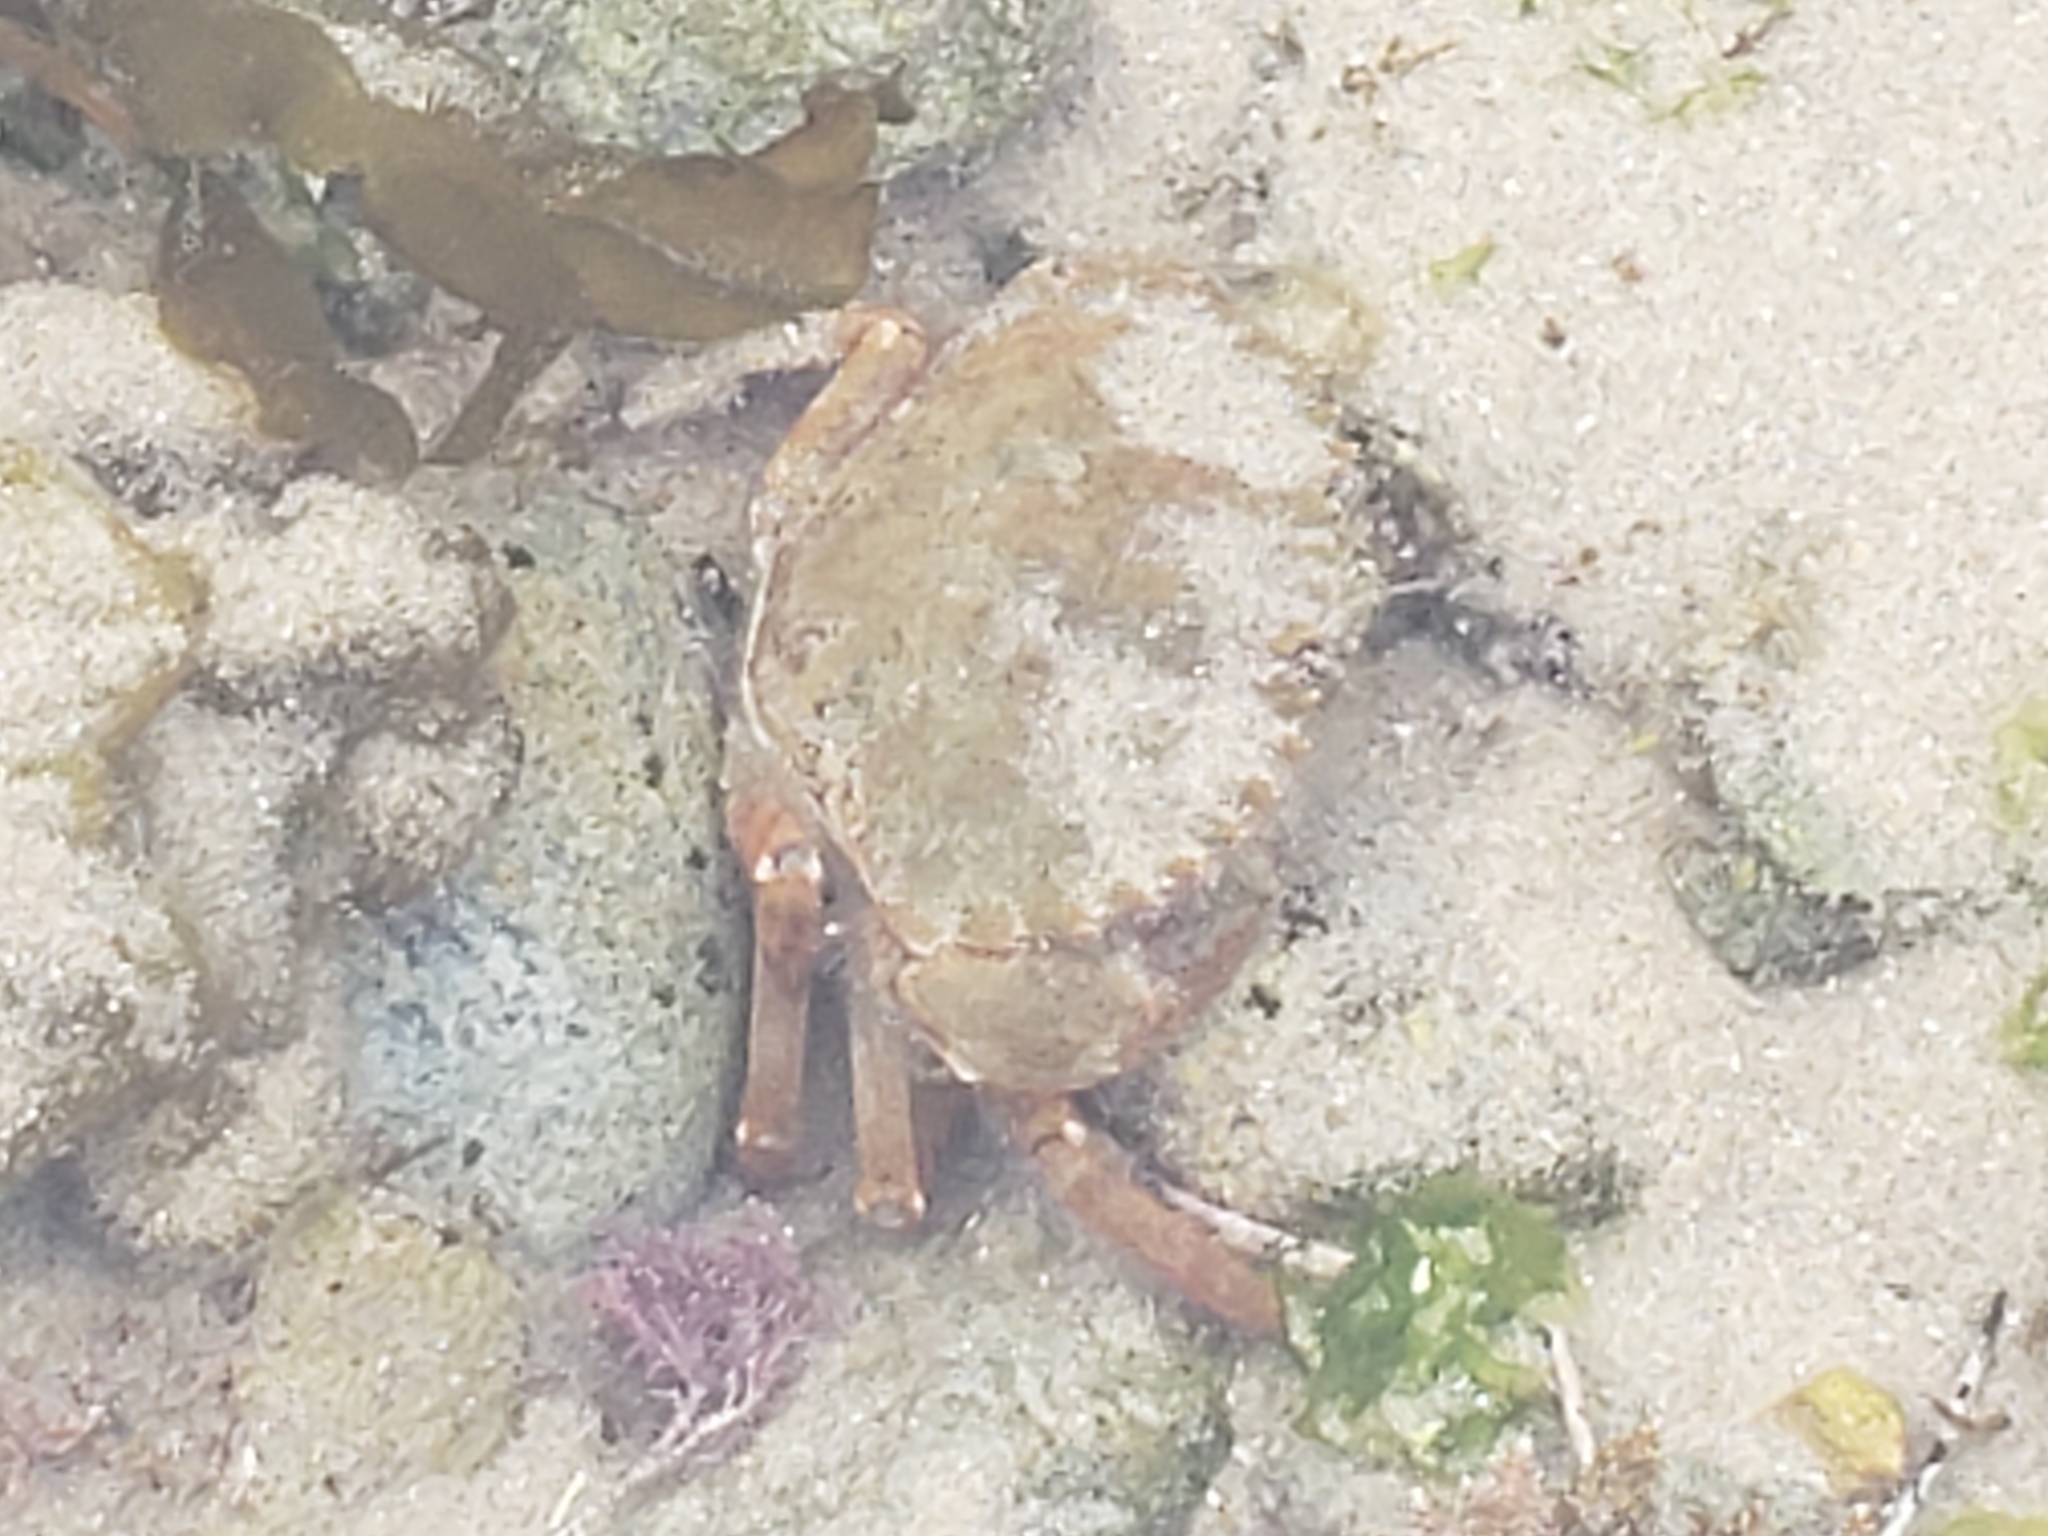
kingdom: Animalia
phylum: Arthropoda
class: Malacostraca
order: Decapoda
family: Cancridae
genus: Metacarcinus
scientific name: Metacarcinus anthonyi
